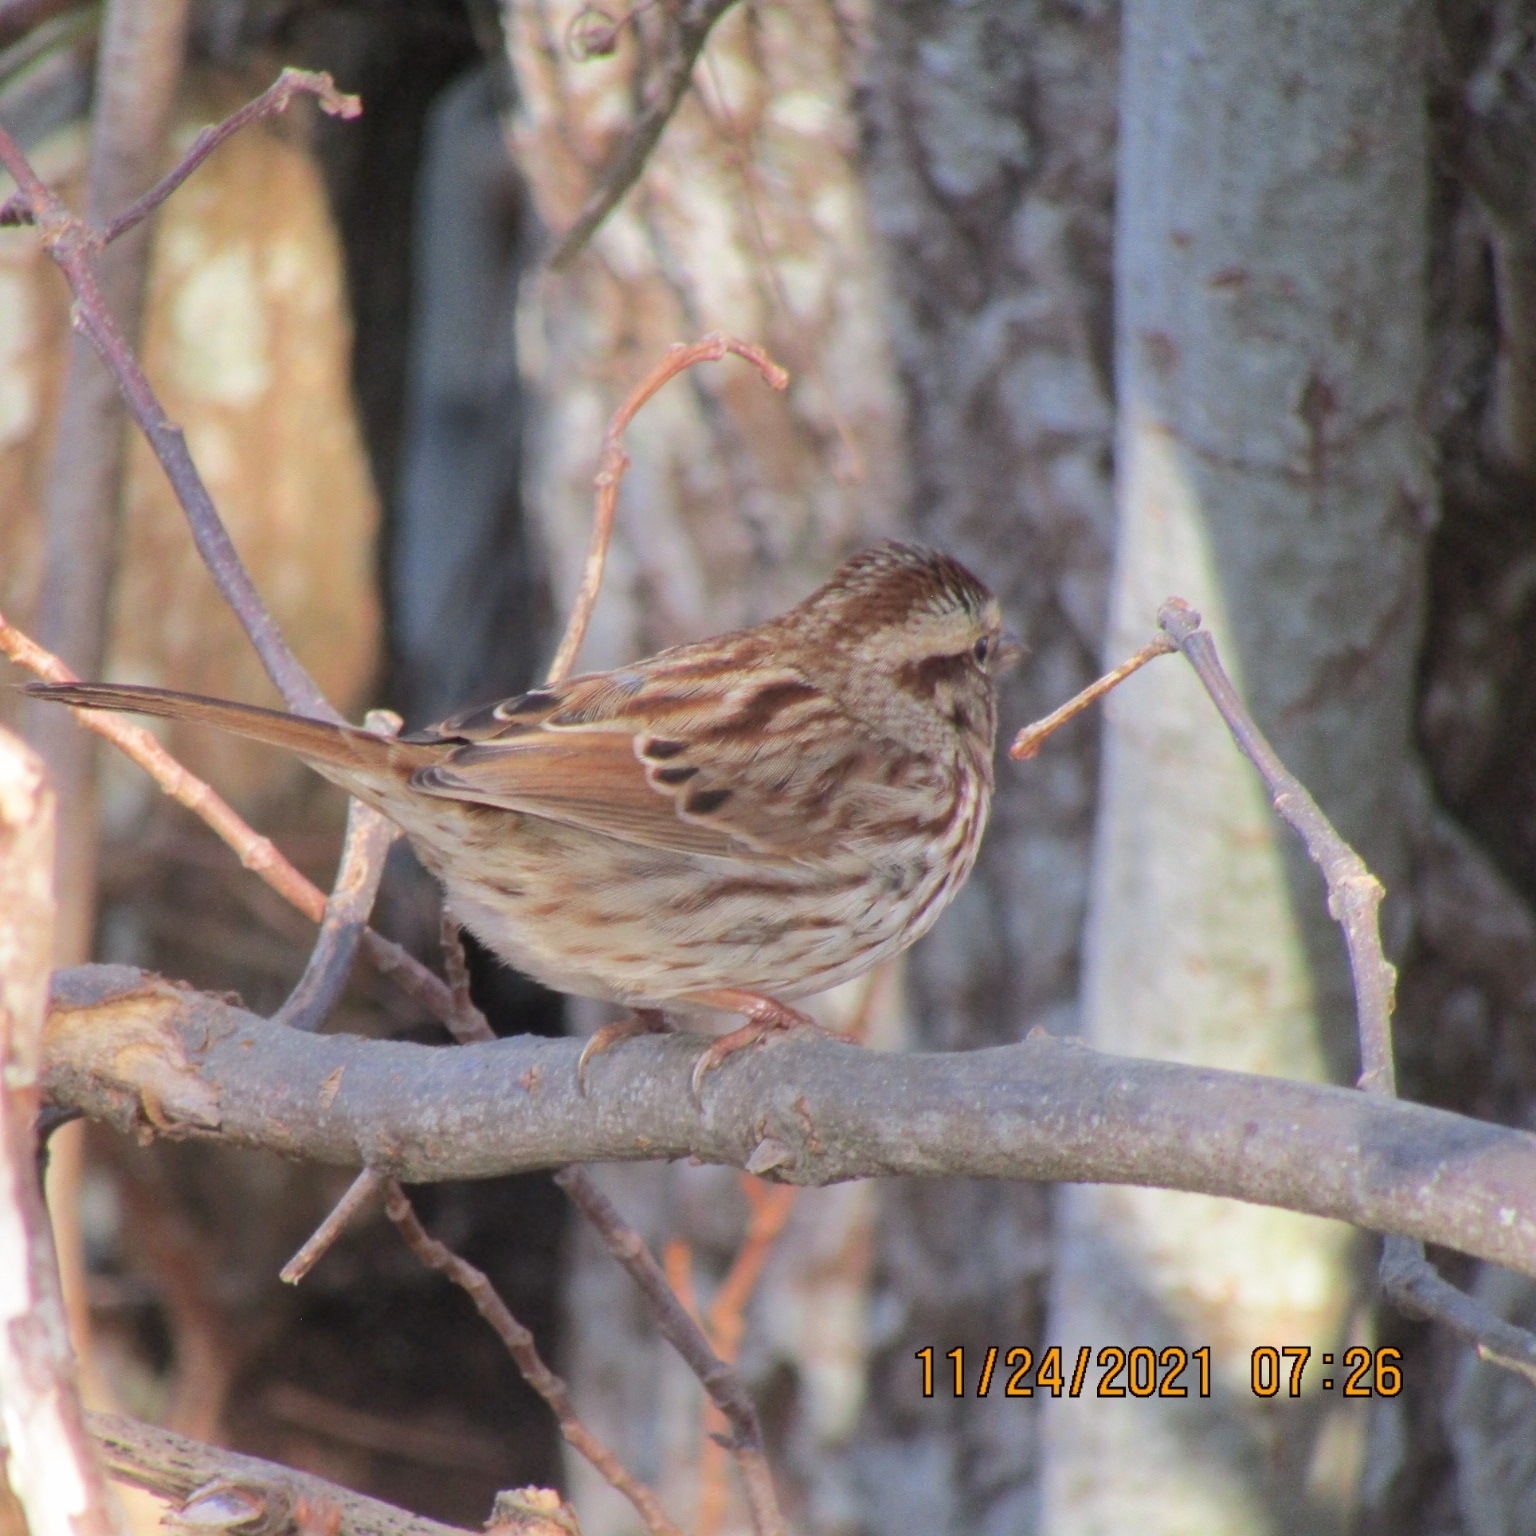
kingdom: Animalia
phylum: Chordata
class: Aves
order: Passeriformes
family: Passerellidae
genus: Melospiza
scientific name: Melospiza melodia
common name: Song sparrow
